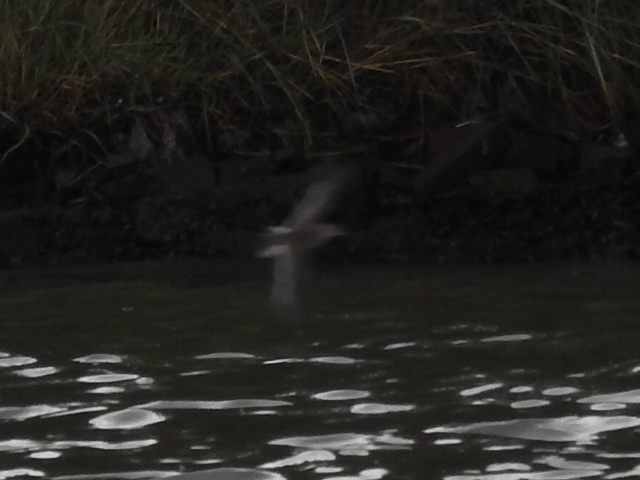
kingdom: Animalia
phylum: Chordata
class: Aves
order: Charadriiformes
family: Scolopacidae
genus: Actitis
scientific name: Actitis hypoleucos
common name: Common sandpiper
